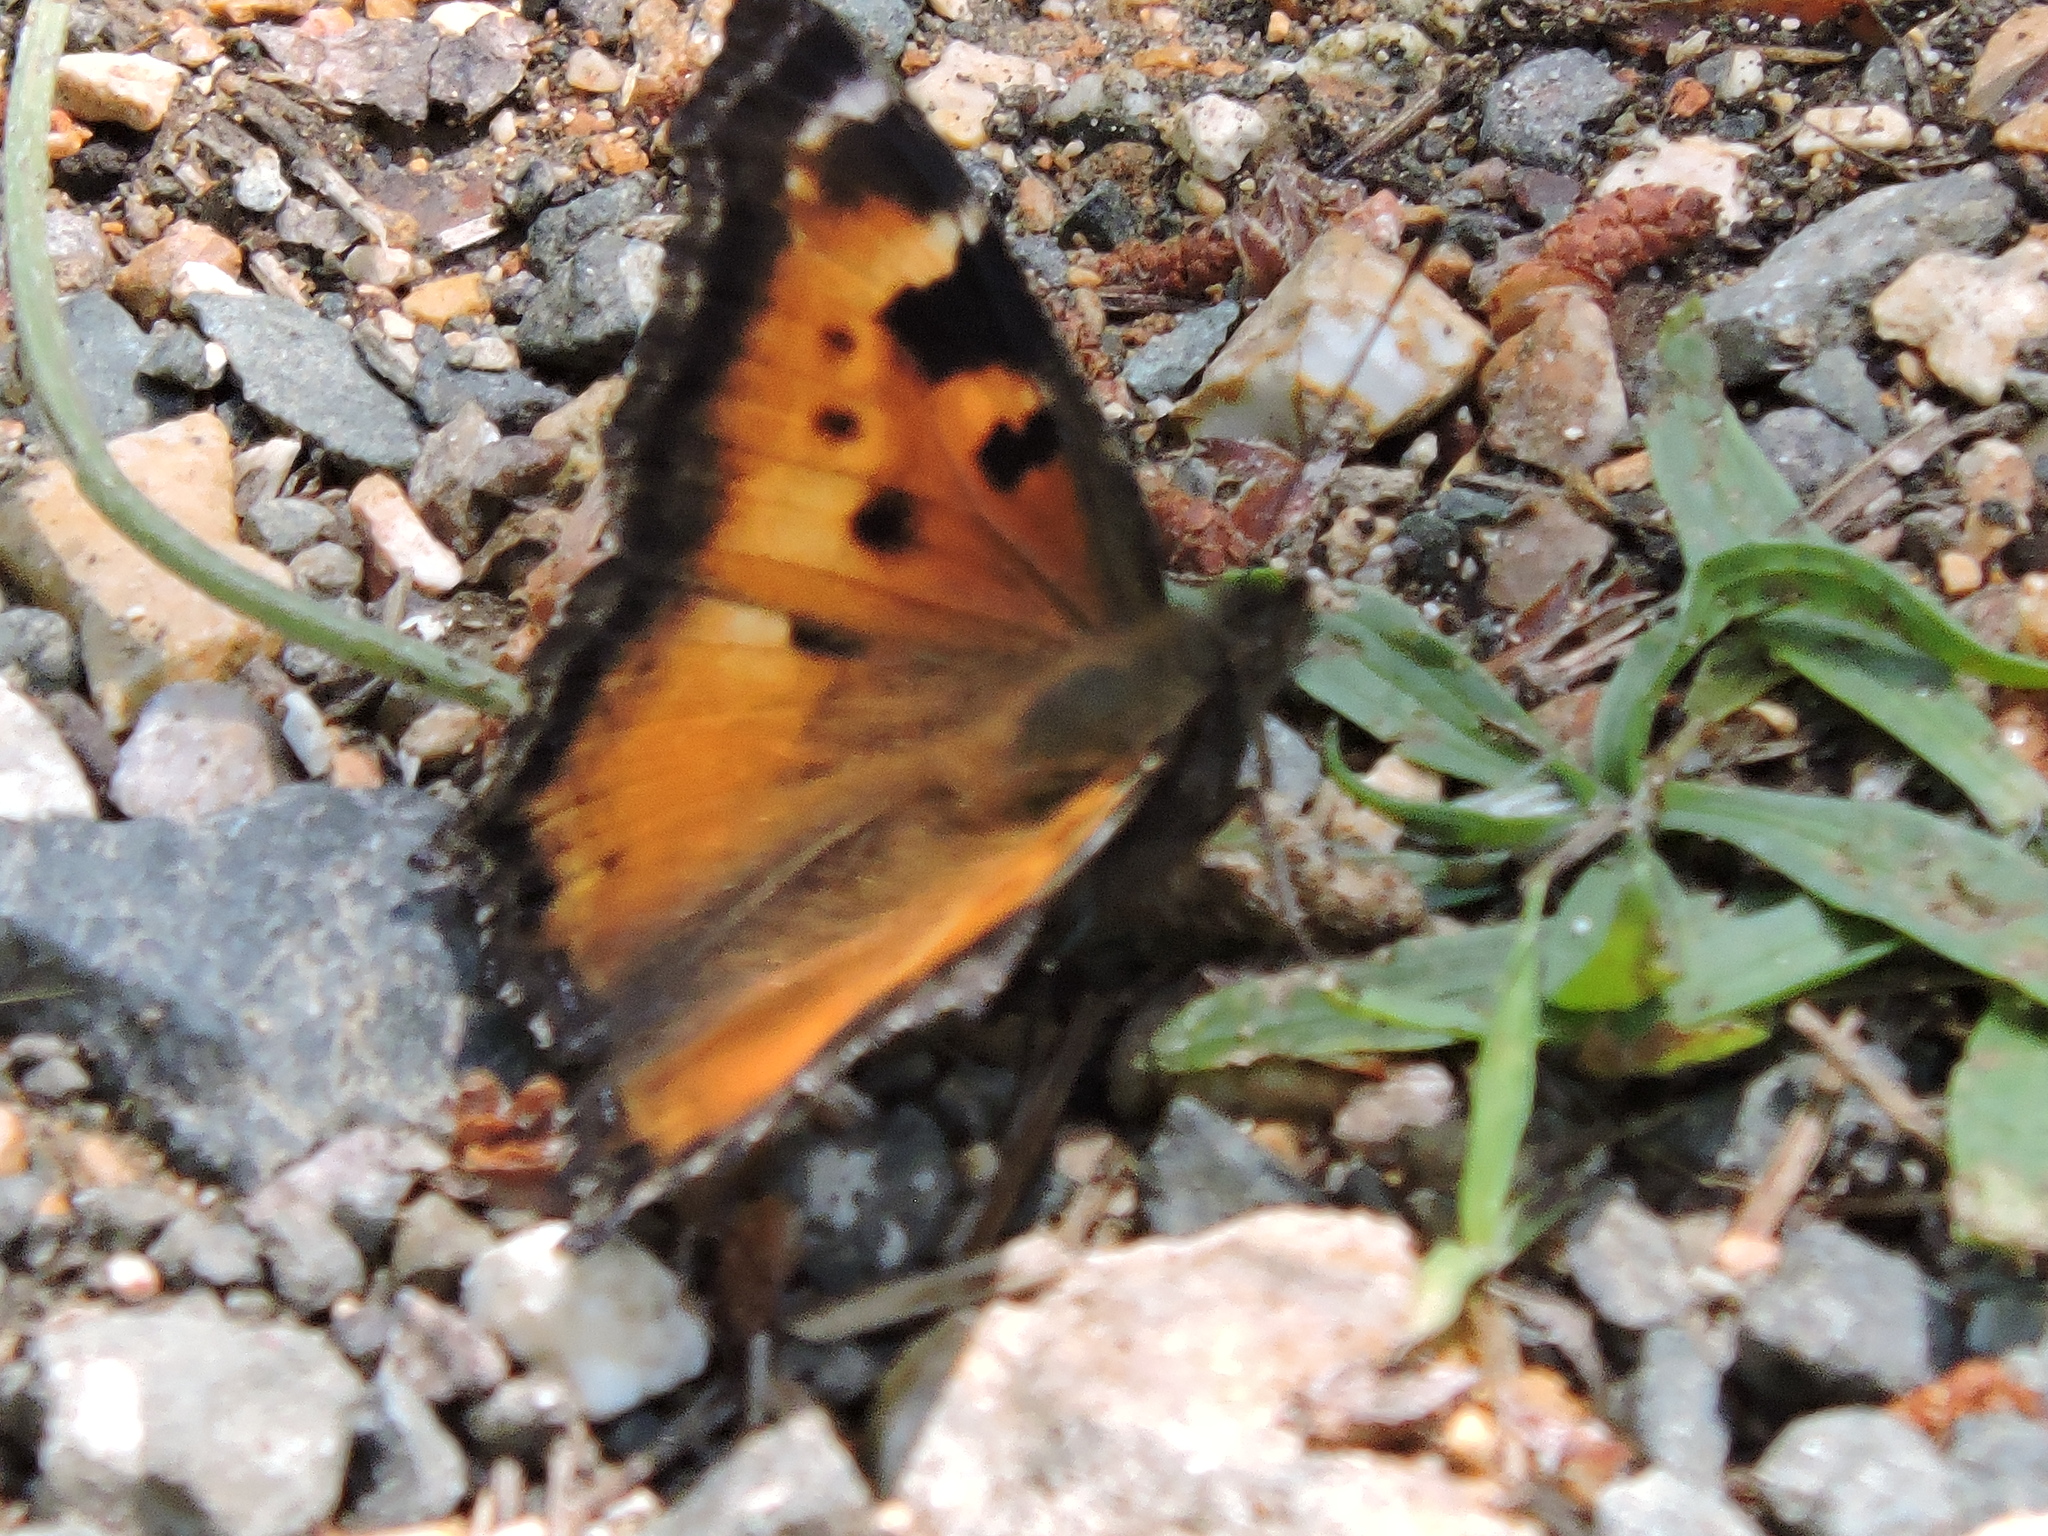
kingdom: Animalia
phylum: Arthropoda
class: Insecta
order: Lepidoptera
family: Nymphalidae
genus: Nymphalis
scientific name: Nymphalis californica
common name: California tortoiseshell
